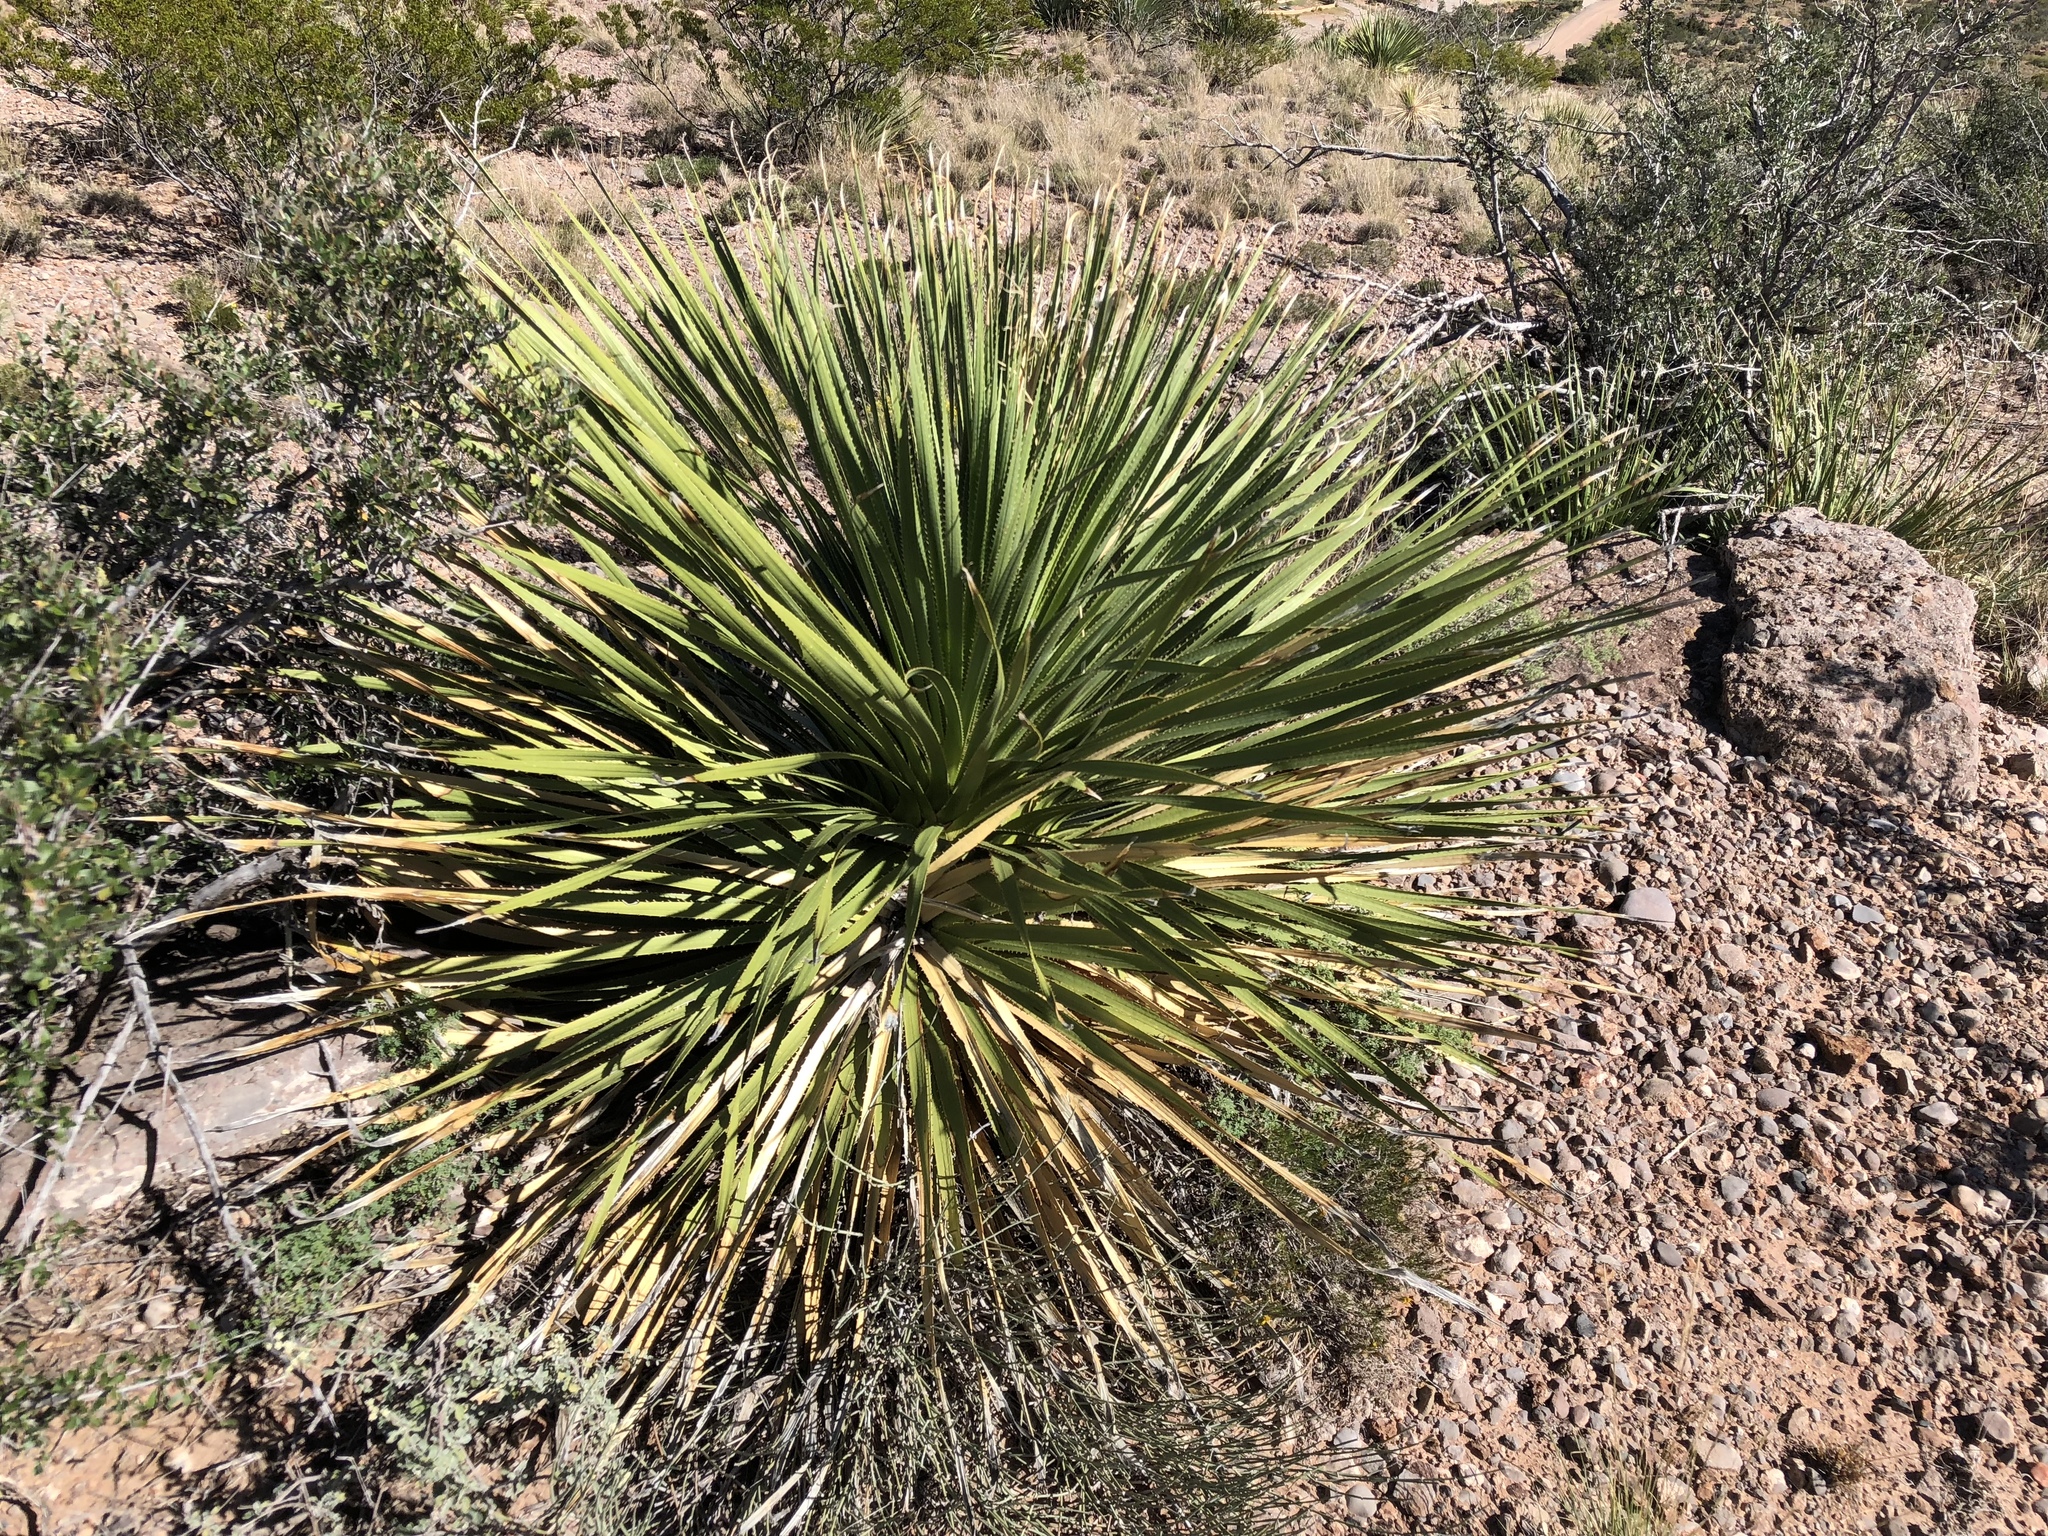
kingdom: Plantae
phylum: Tracheophyta
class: Liliopsida
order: Asparagales
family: Asparagaceae
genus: Dasylirion
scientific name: Dasylirion wheeleri
